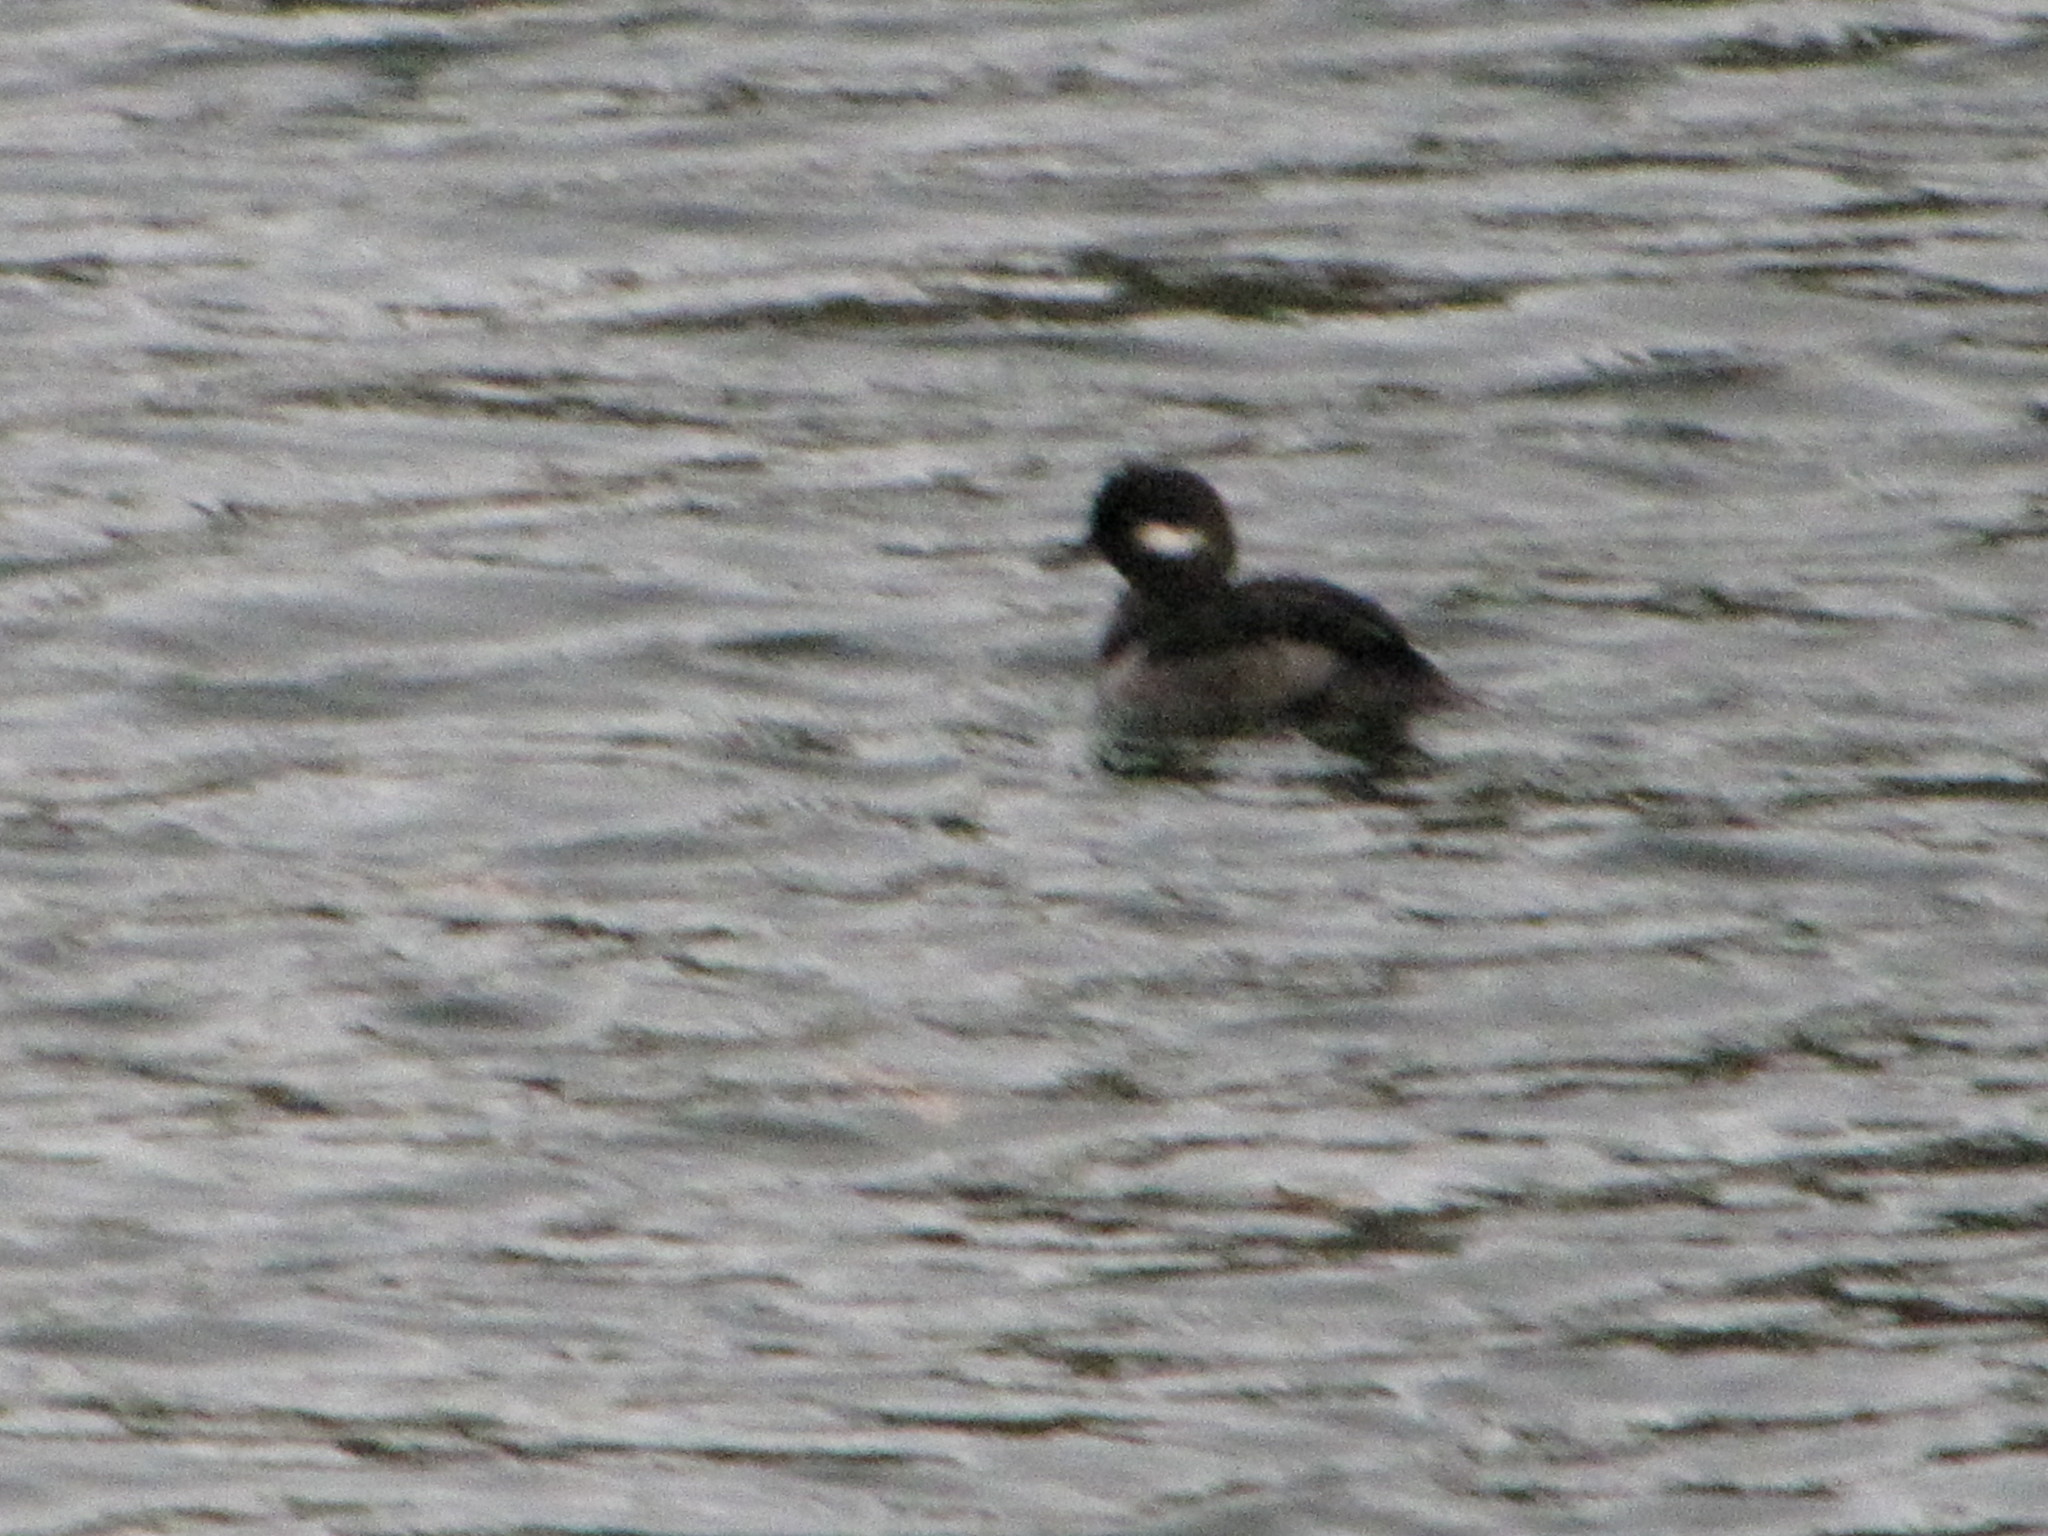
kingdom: Animalia
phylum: Chordata
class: Aves
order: Anseriformes
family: Anatidae
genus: Bucephala
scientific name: Bucephala albeola
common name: Bufflehead
